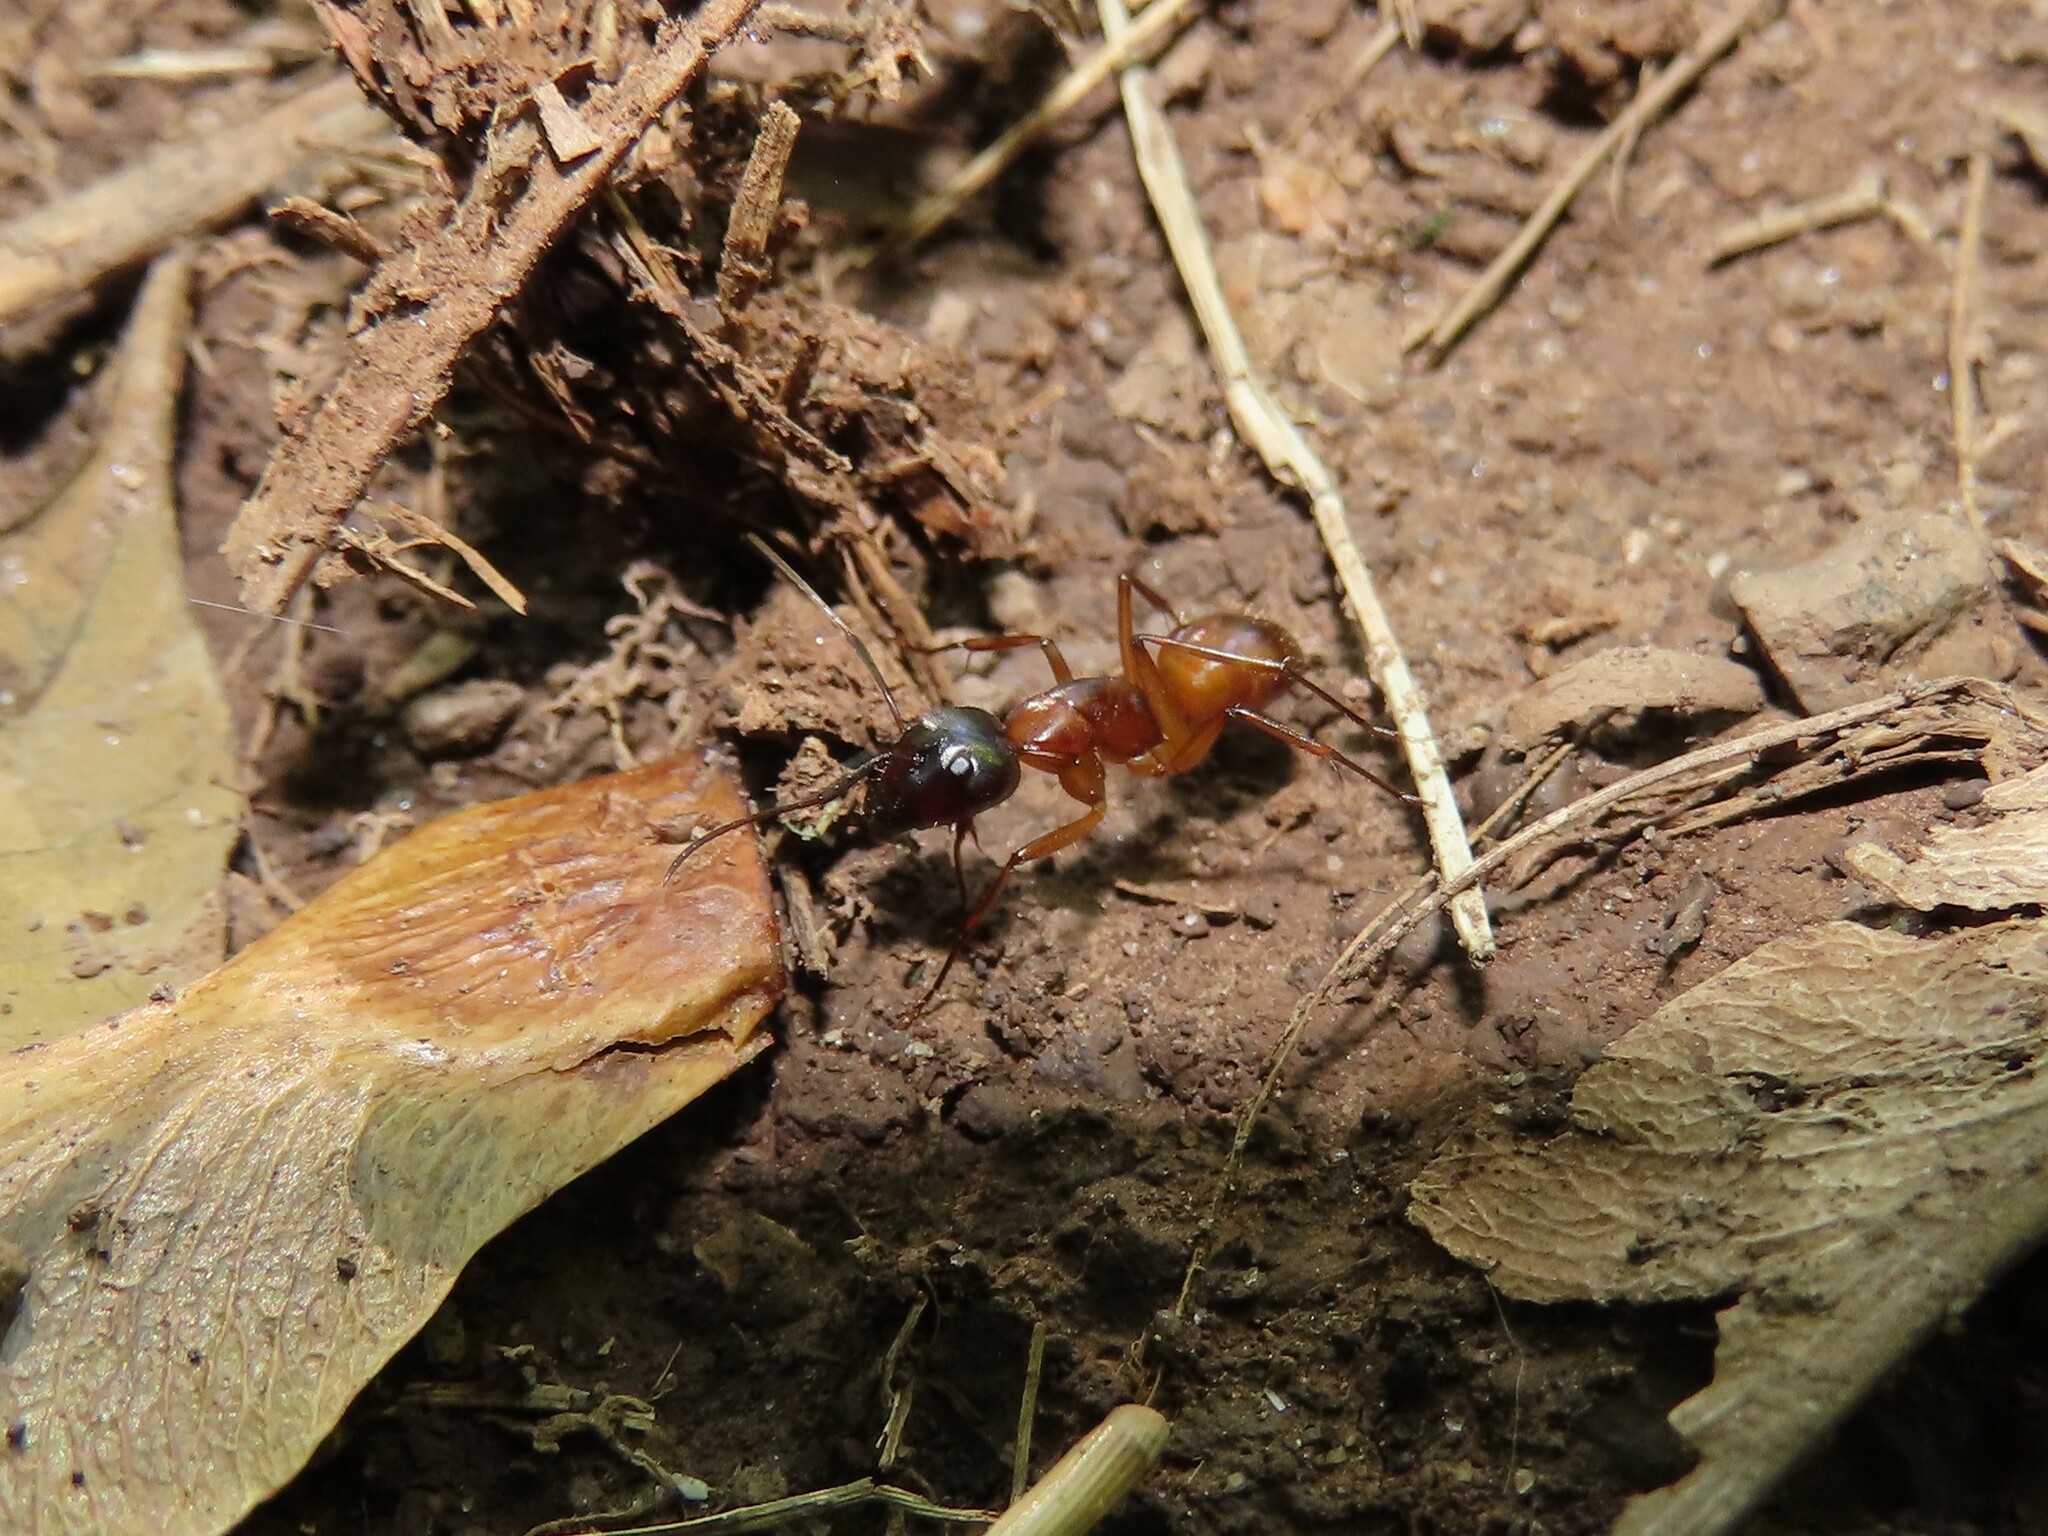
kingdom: Animalia
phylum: Arthropoda
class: Insecta
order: Hymenoptera
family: Formicidae
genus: Camponotus
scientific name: Camponotus americanus
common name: American carpenter ant
